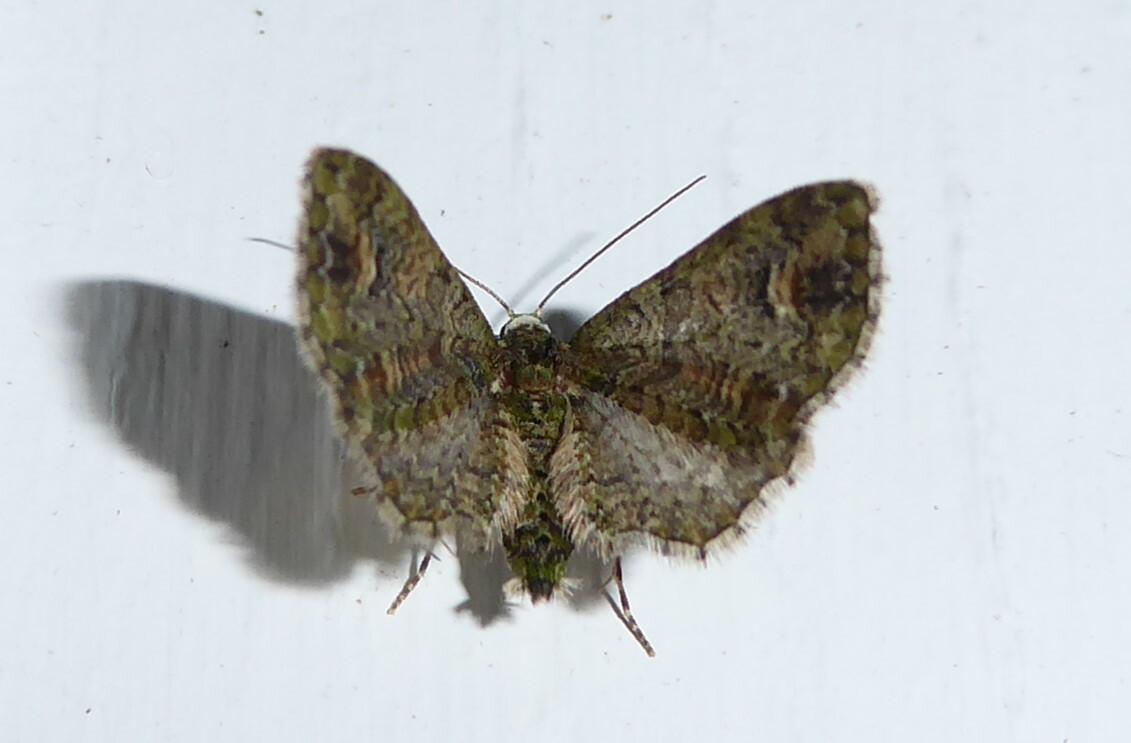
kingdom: Animalia
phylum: Arthropoda
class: Insecta
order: Lepidoptera
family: Geometridae
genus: Idaea
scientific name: Idaea mutanda
